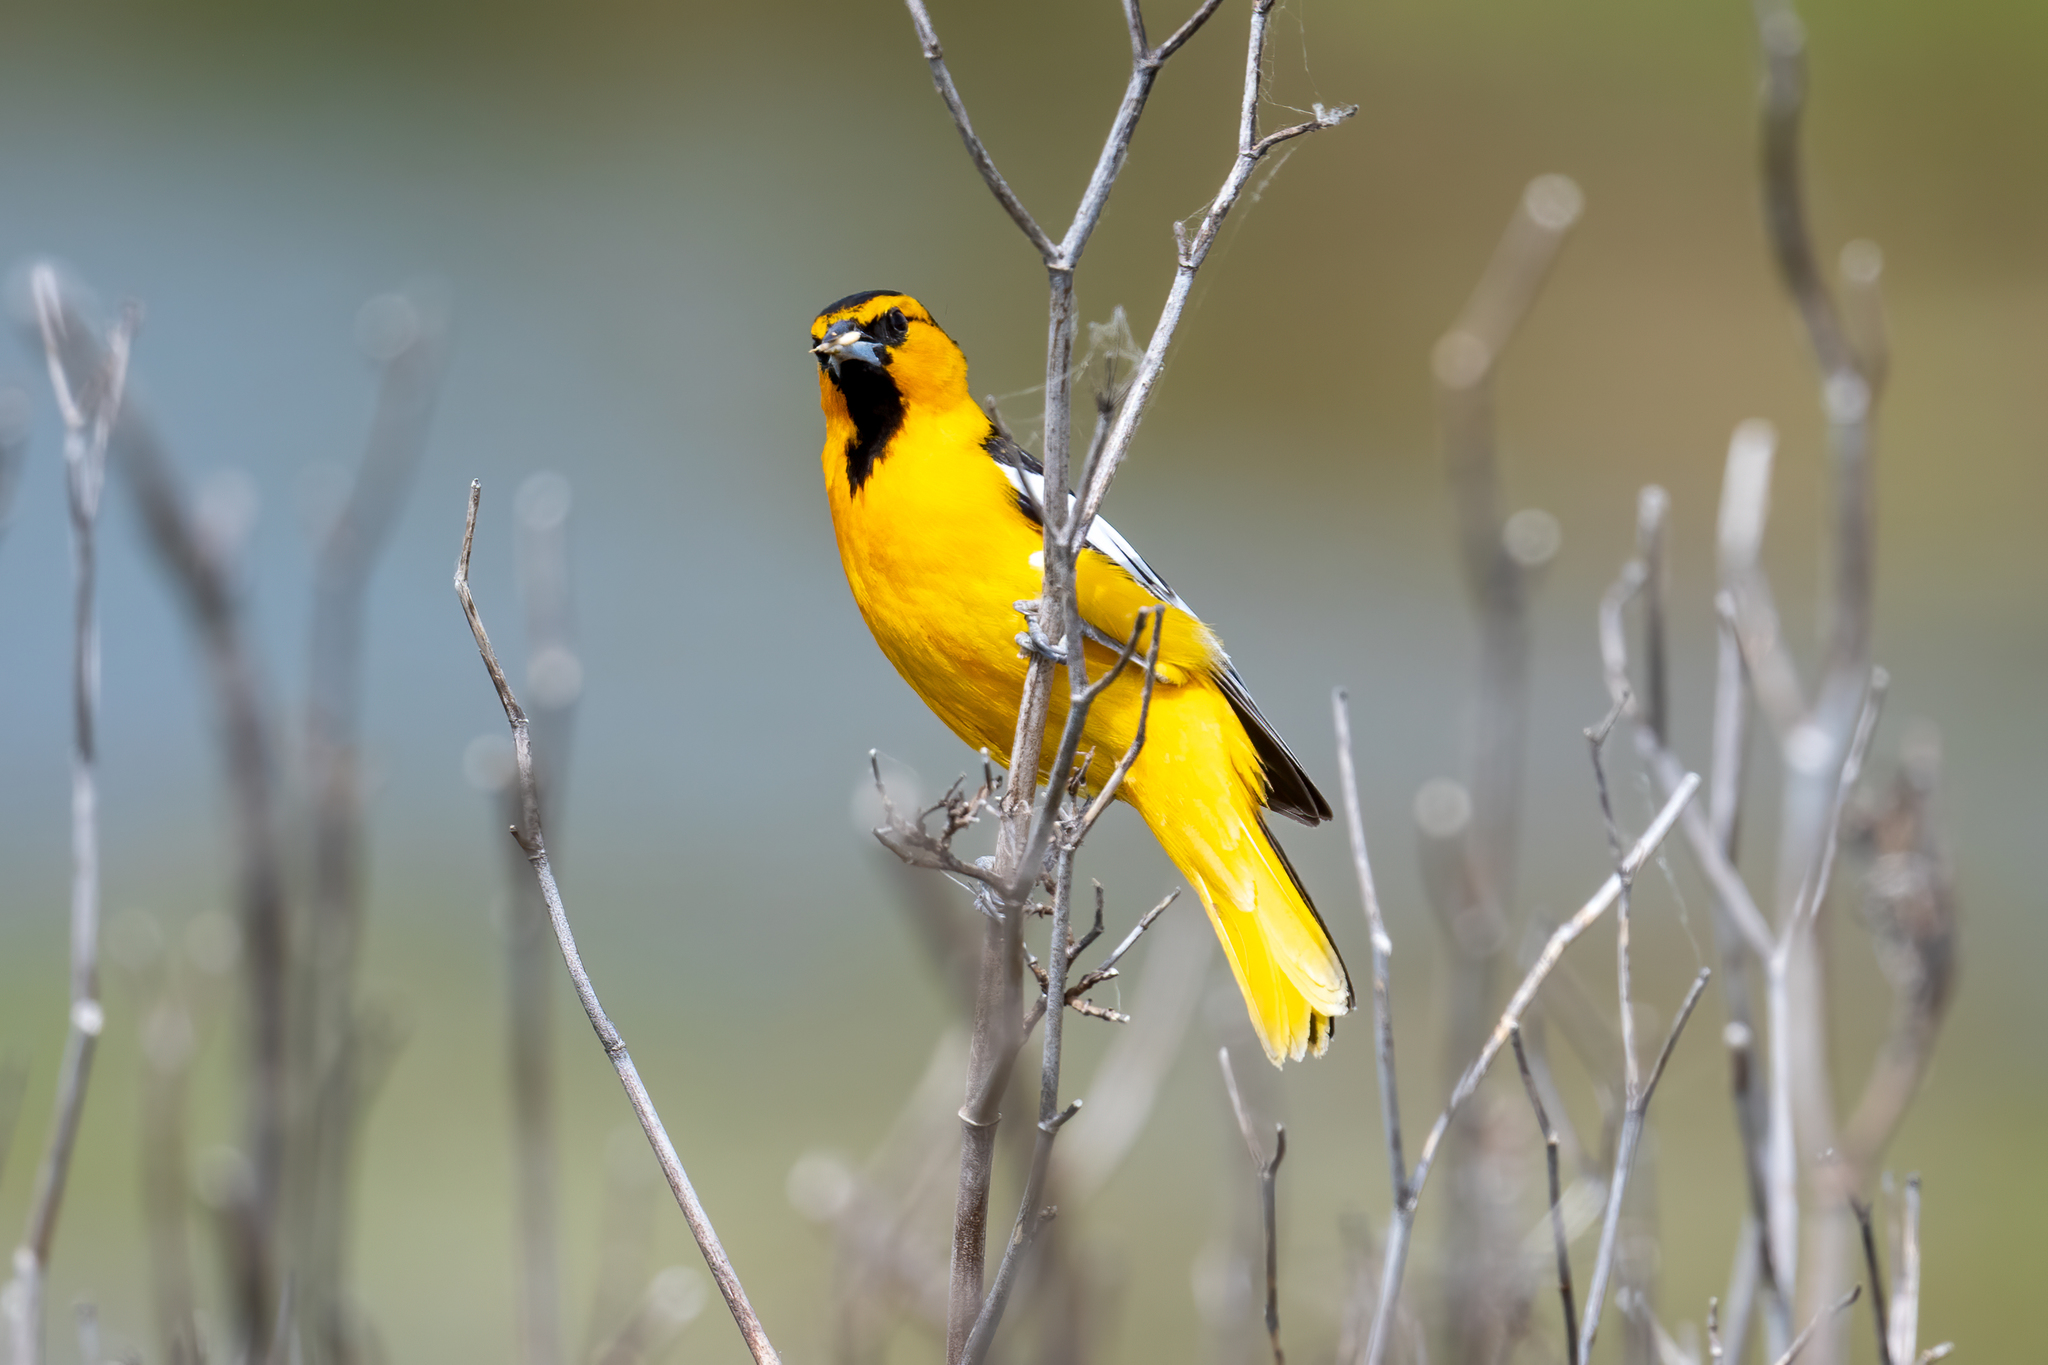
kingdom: Animalia
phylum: Chordata
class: Aves
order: Passeriformes
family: Icteridae
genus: Icterus
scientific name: Icterus bullockii
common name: Bullock's oriole
